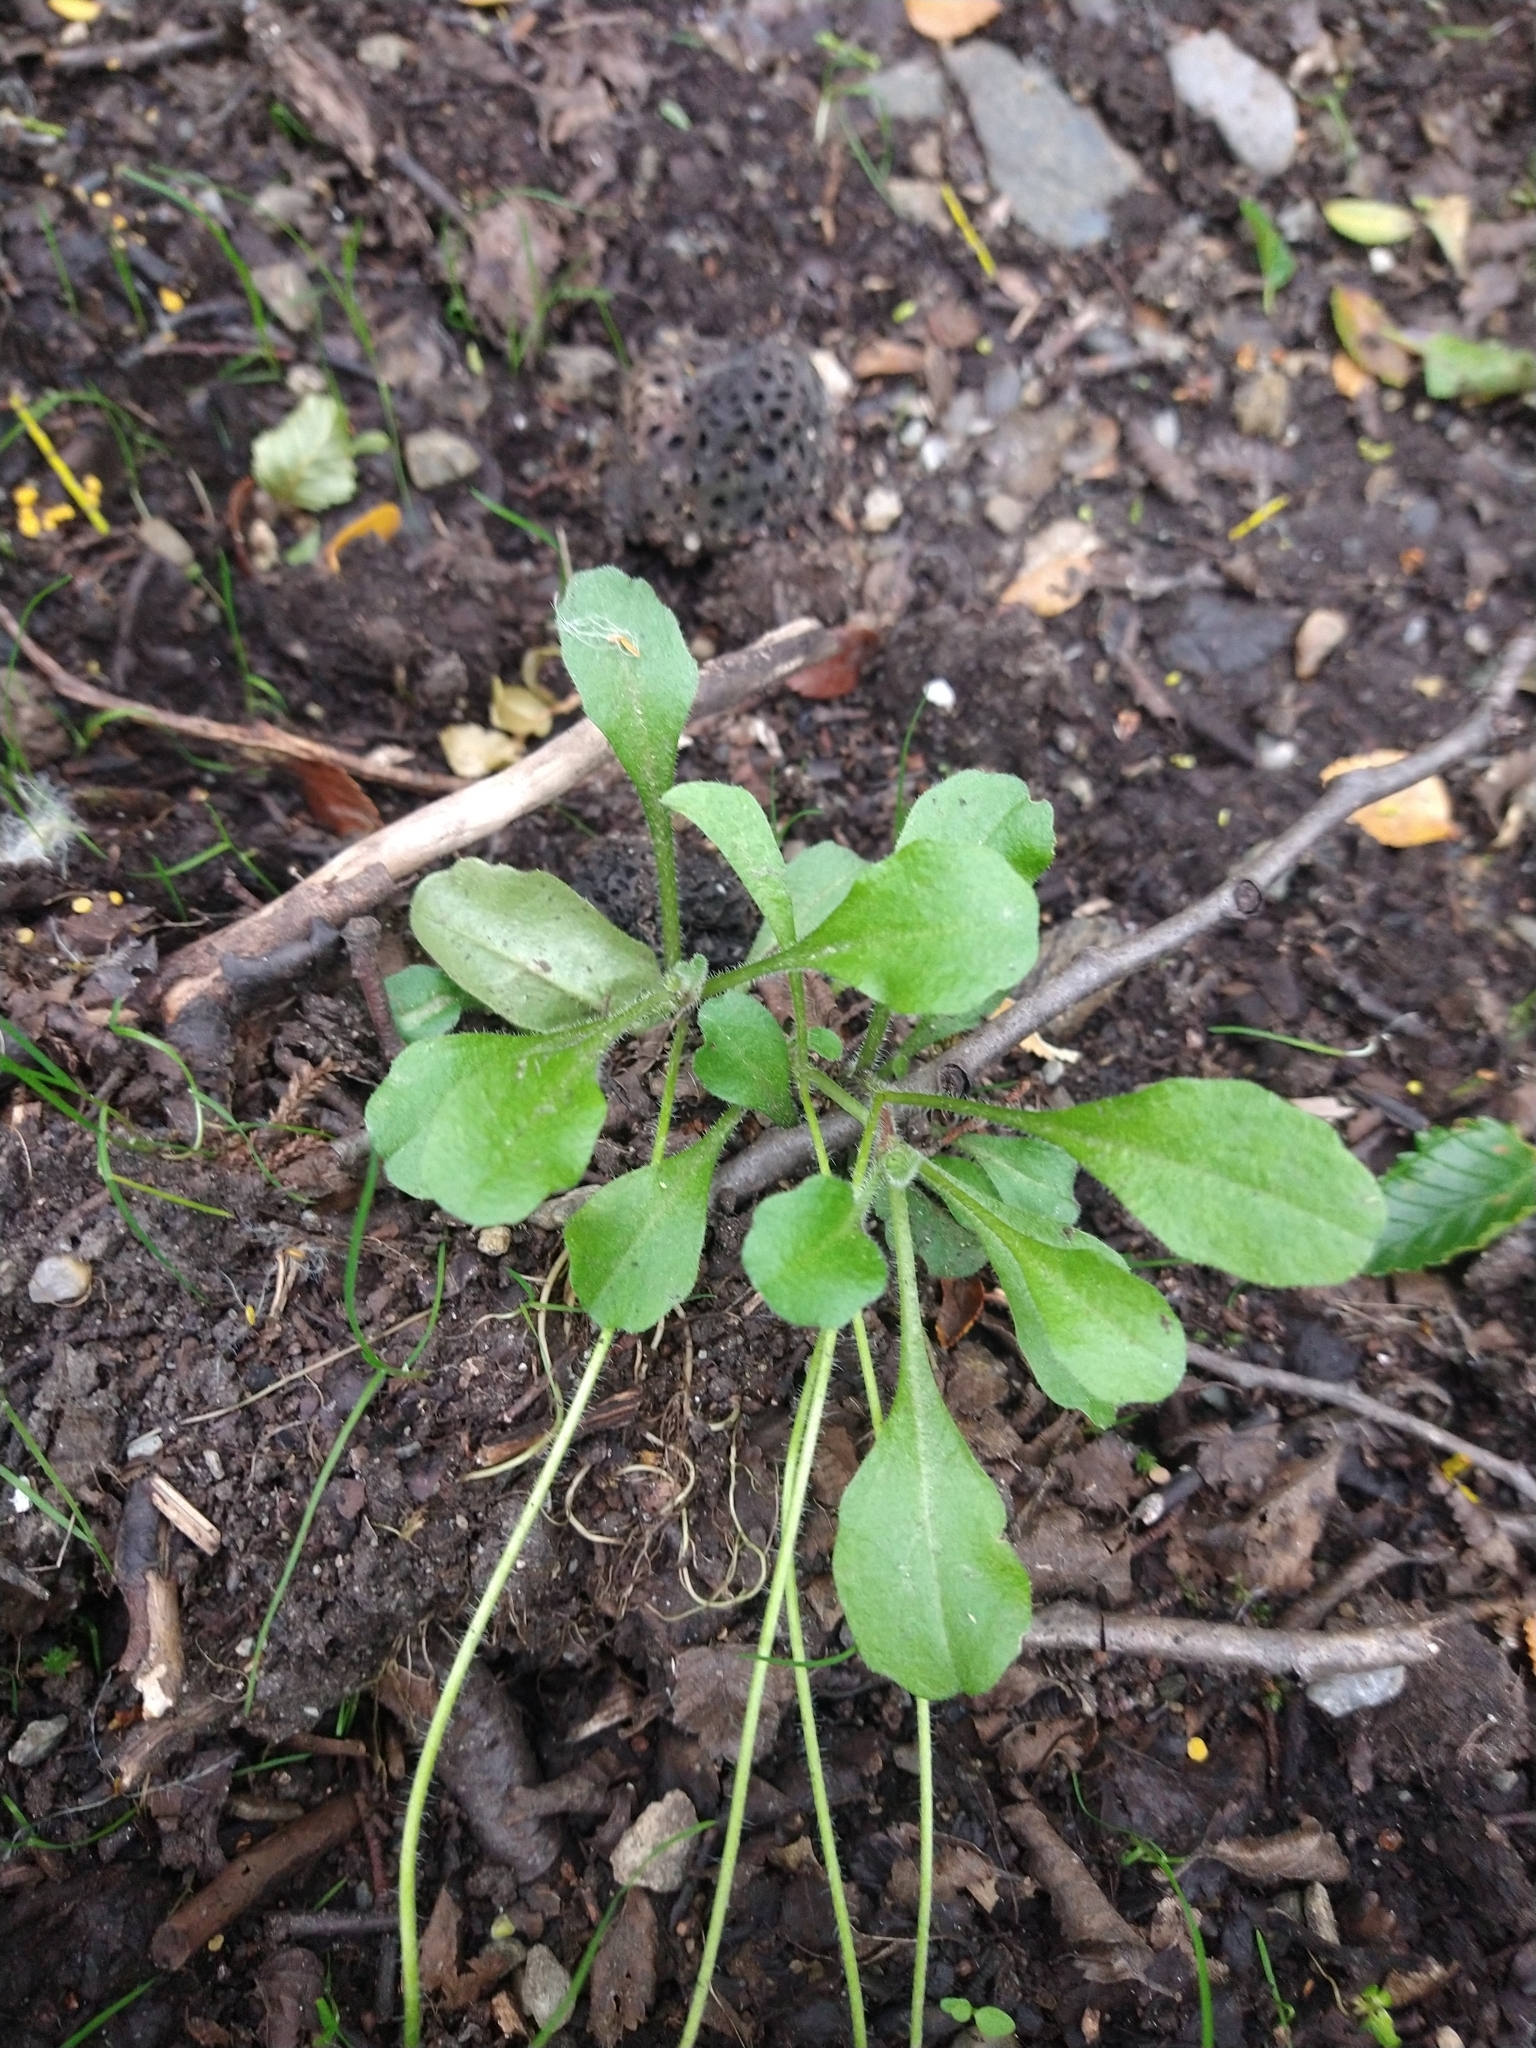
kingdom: Plantae
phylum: Tracheophyta
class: Magnoliopsida
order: Asterales
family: Asteraceae
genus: Bellis
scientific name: Bellis perennis
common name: Lawndaisy
